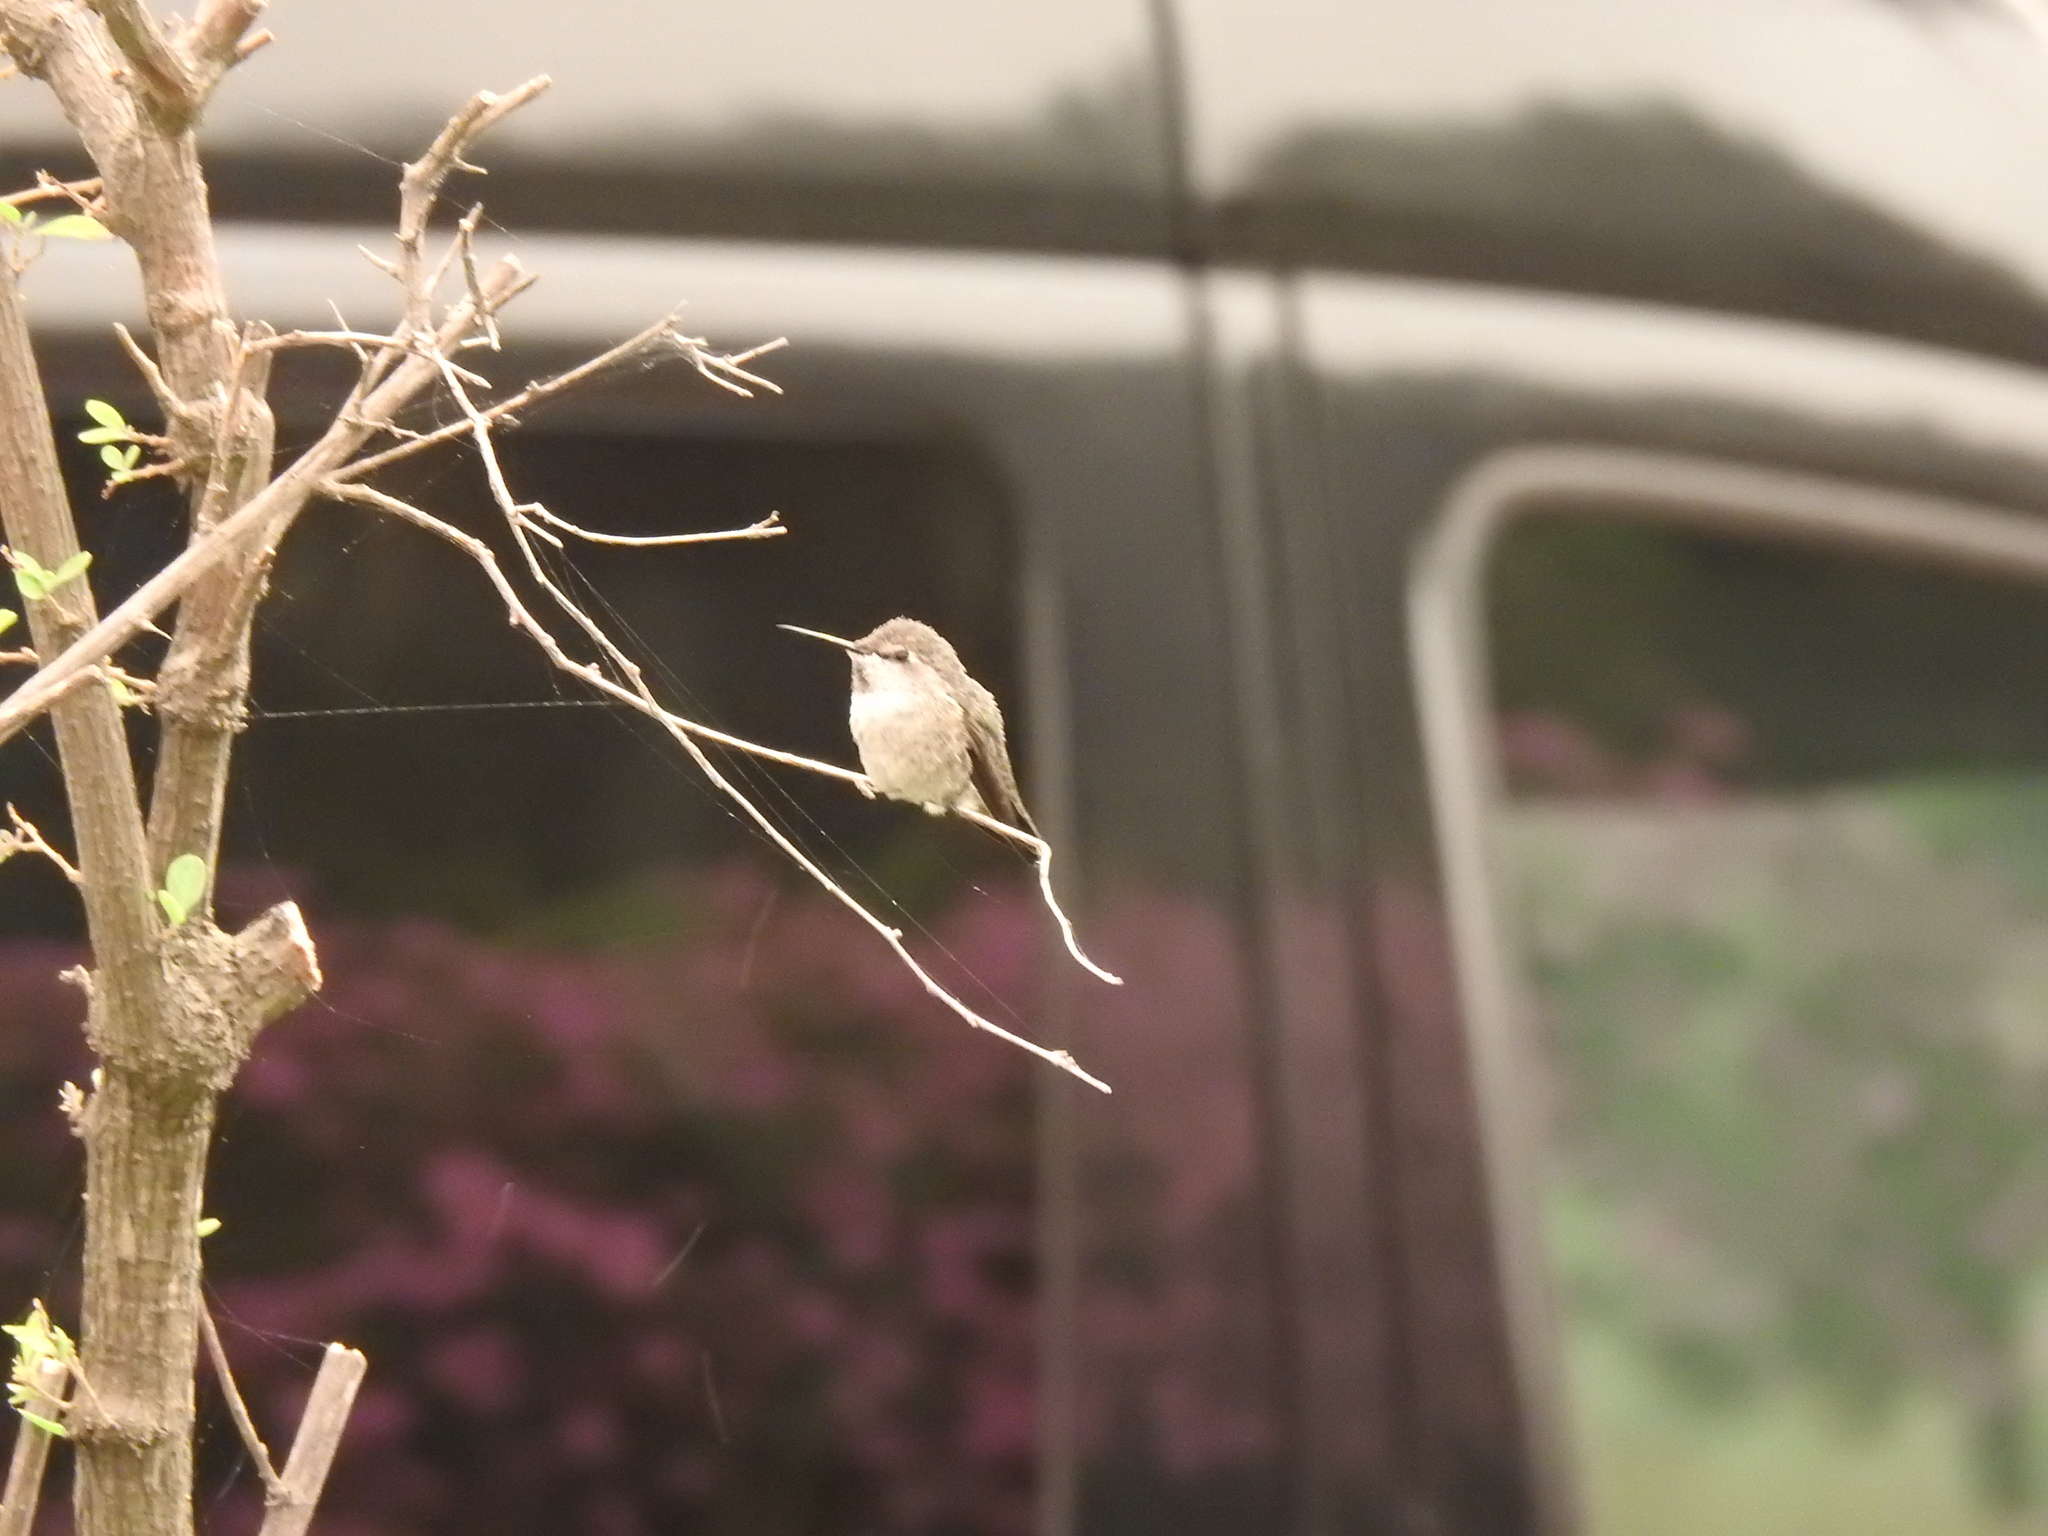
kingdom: Animalia
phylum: Chordata
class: Aves
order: Apodiformes
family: Trochilidae
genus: Calypte
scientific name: Calypte anna
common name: Anna's hummingbird
